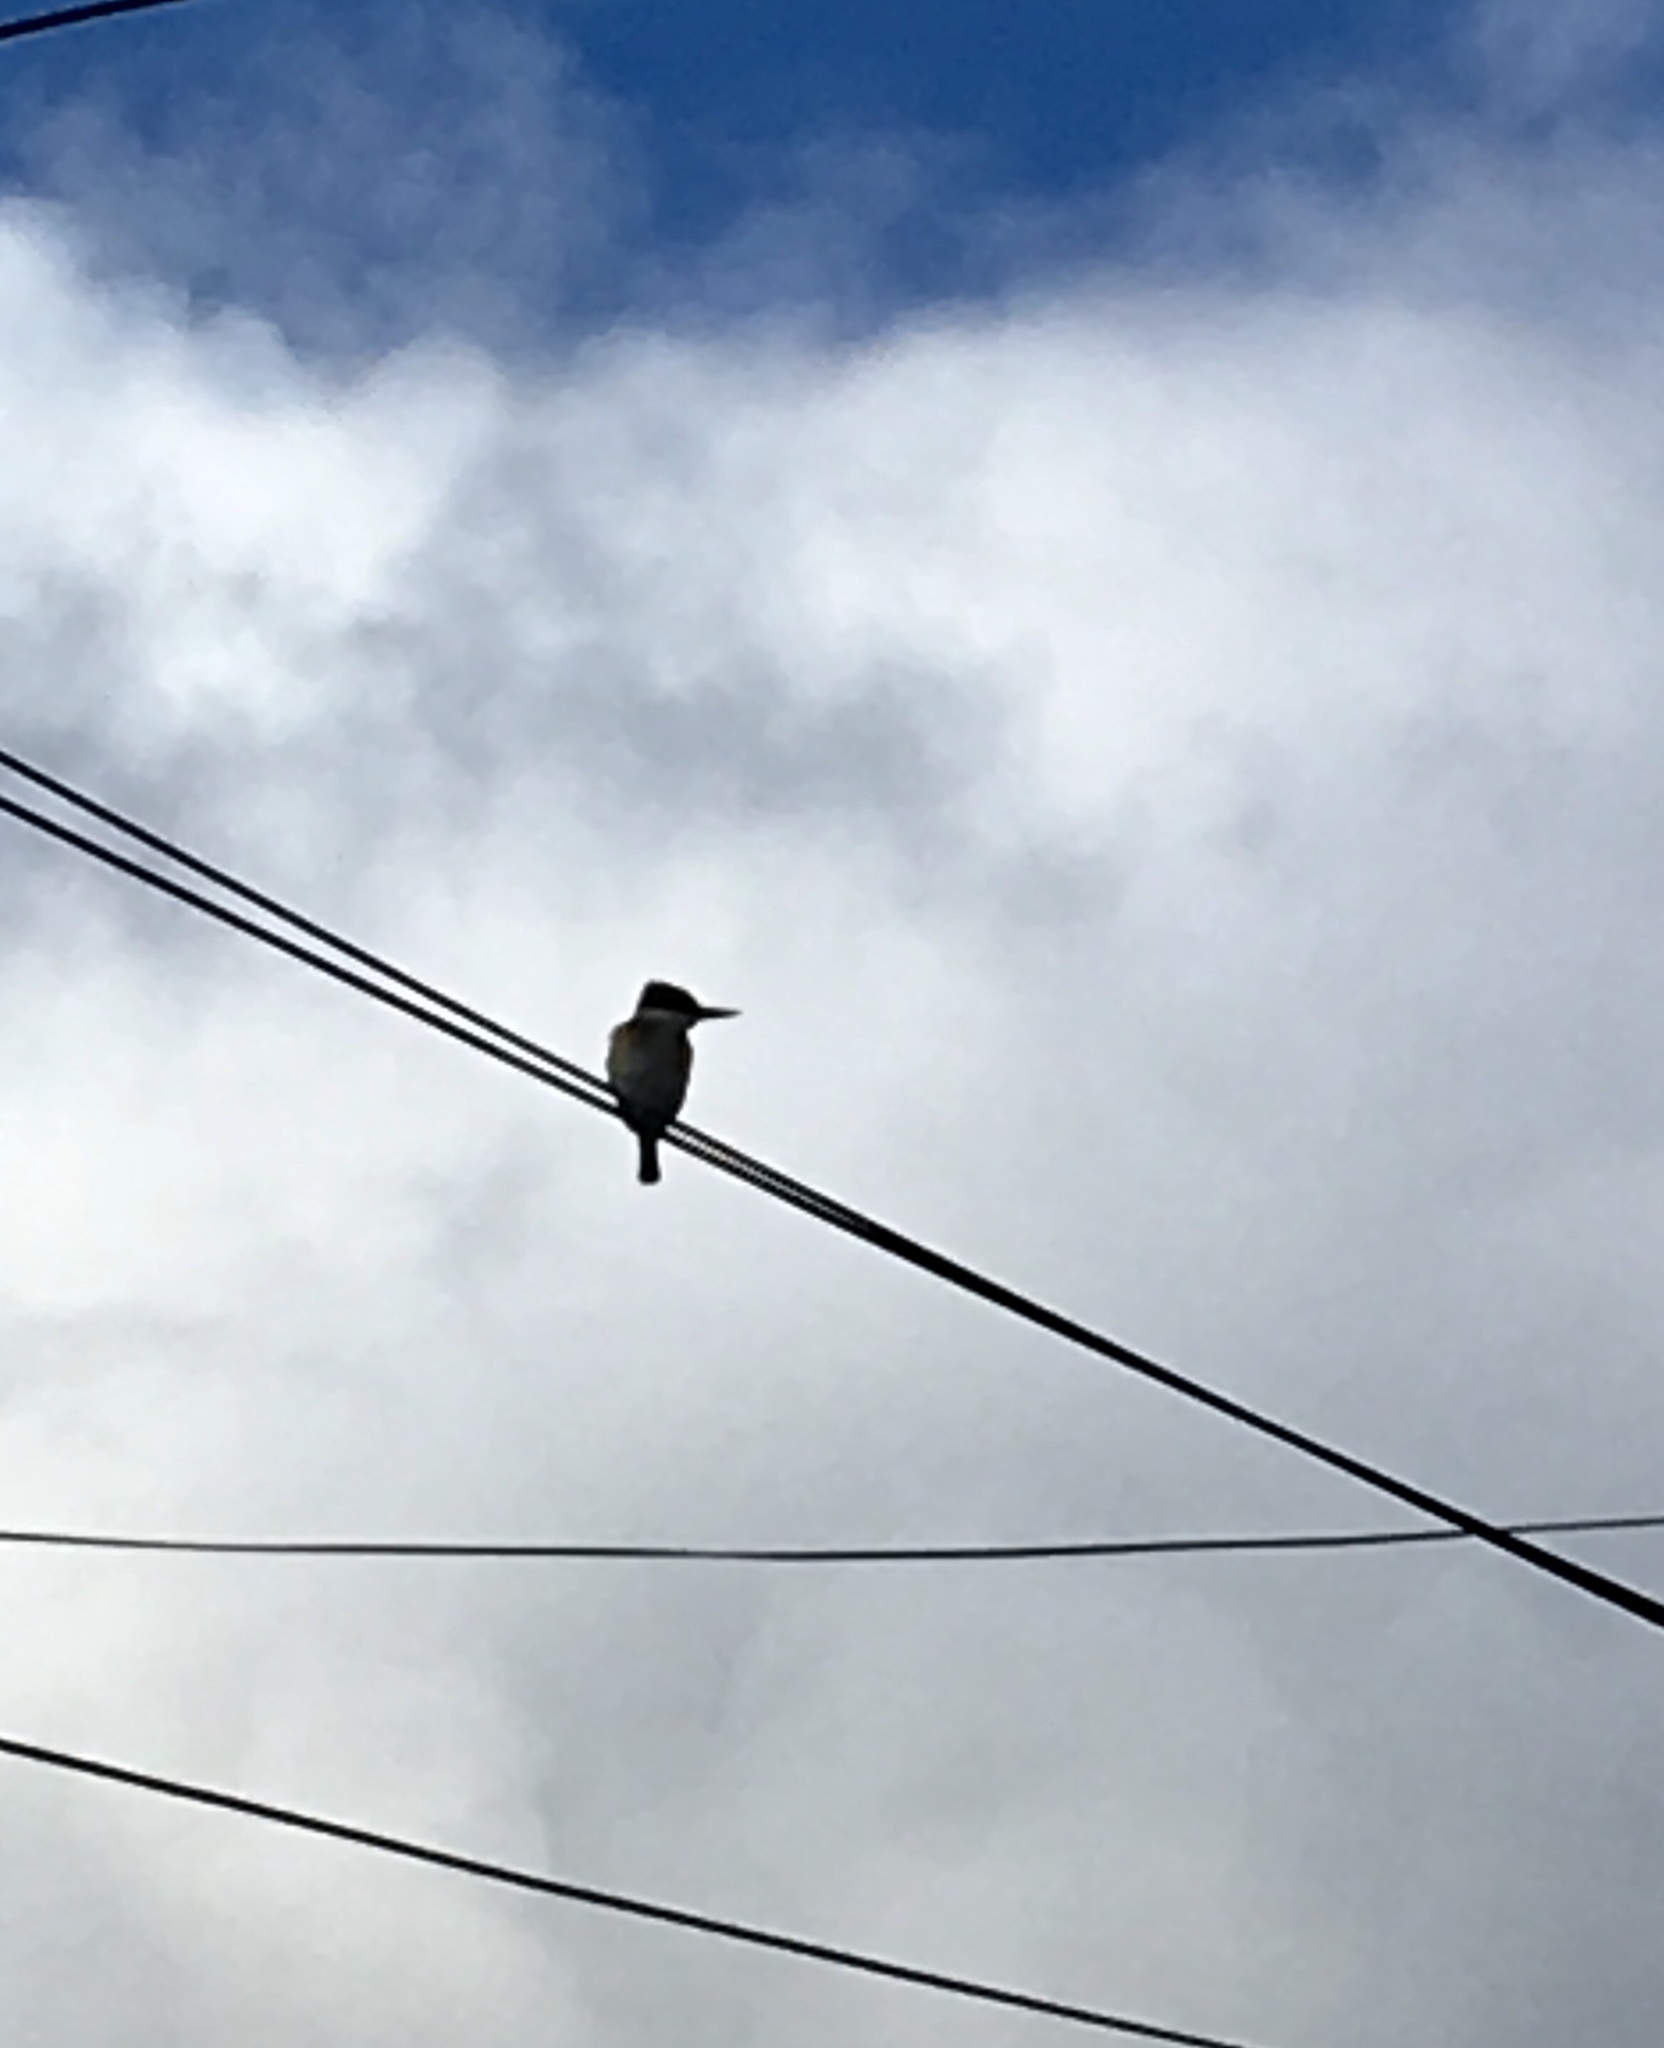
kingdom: Animalia
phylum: Chordata
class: Aves
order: Coraciiformes
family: Alcedinidae
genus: Todiramphus
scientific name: Todiramphus sanctus
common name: Sacred kingfisher
